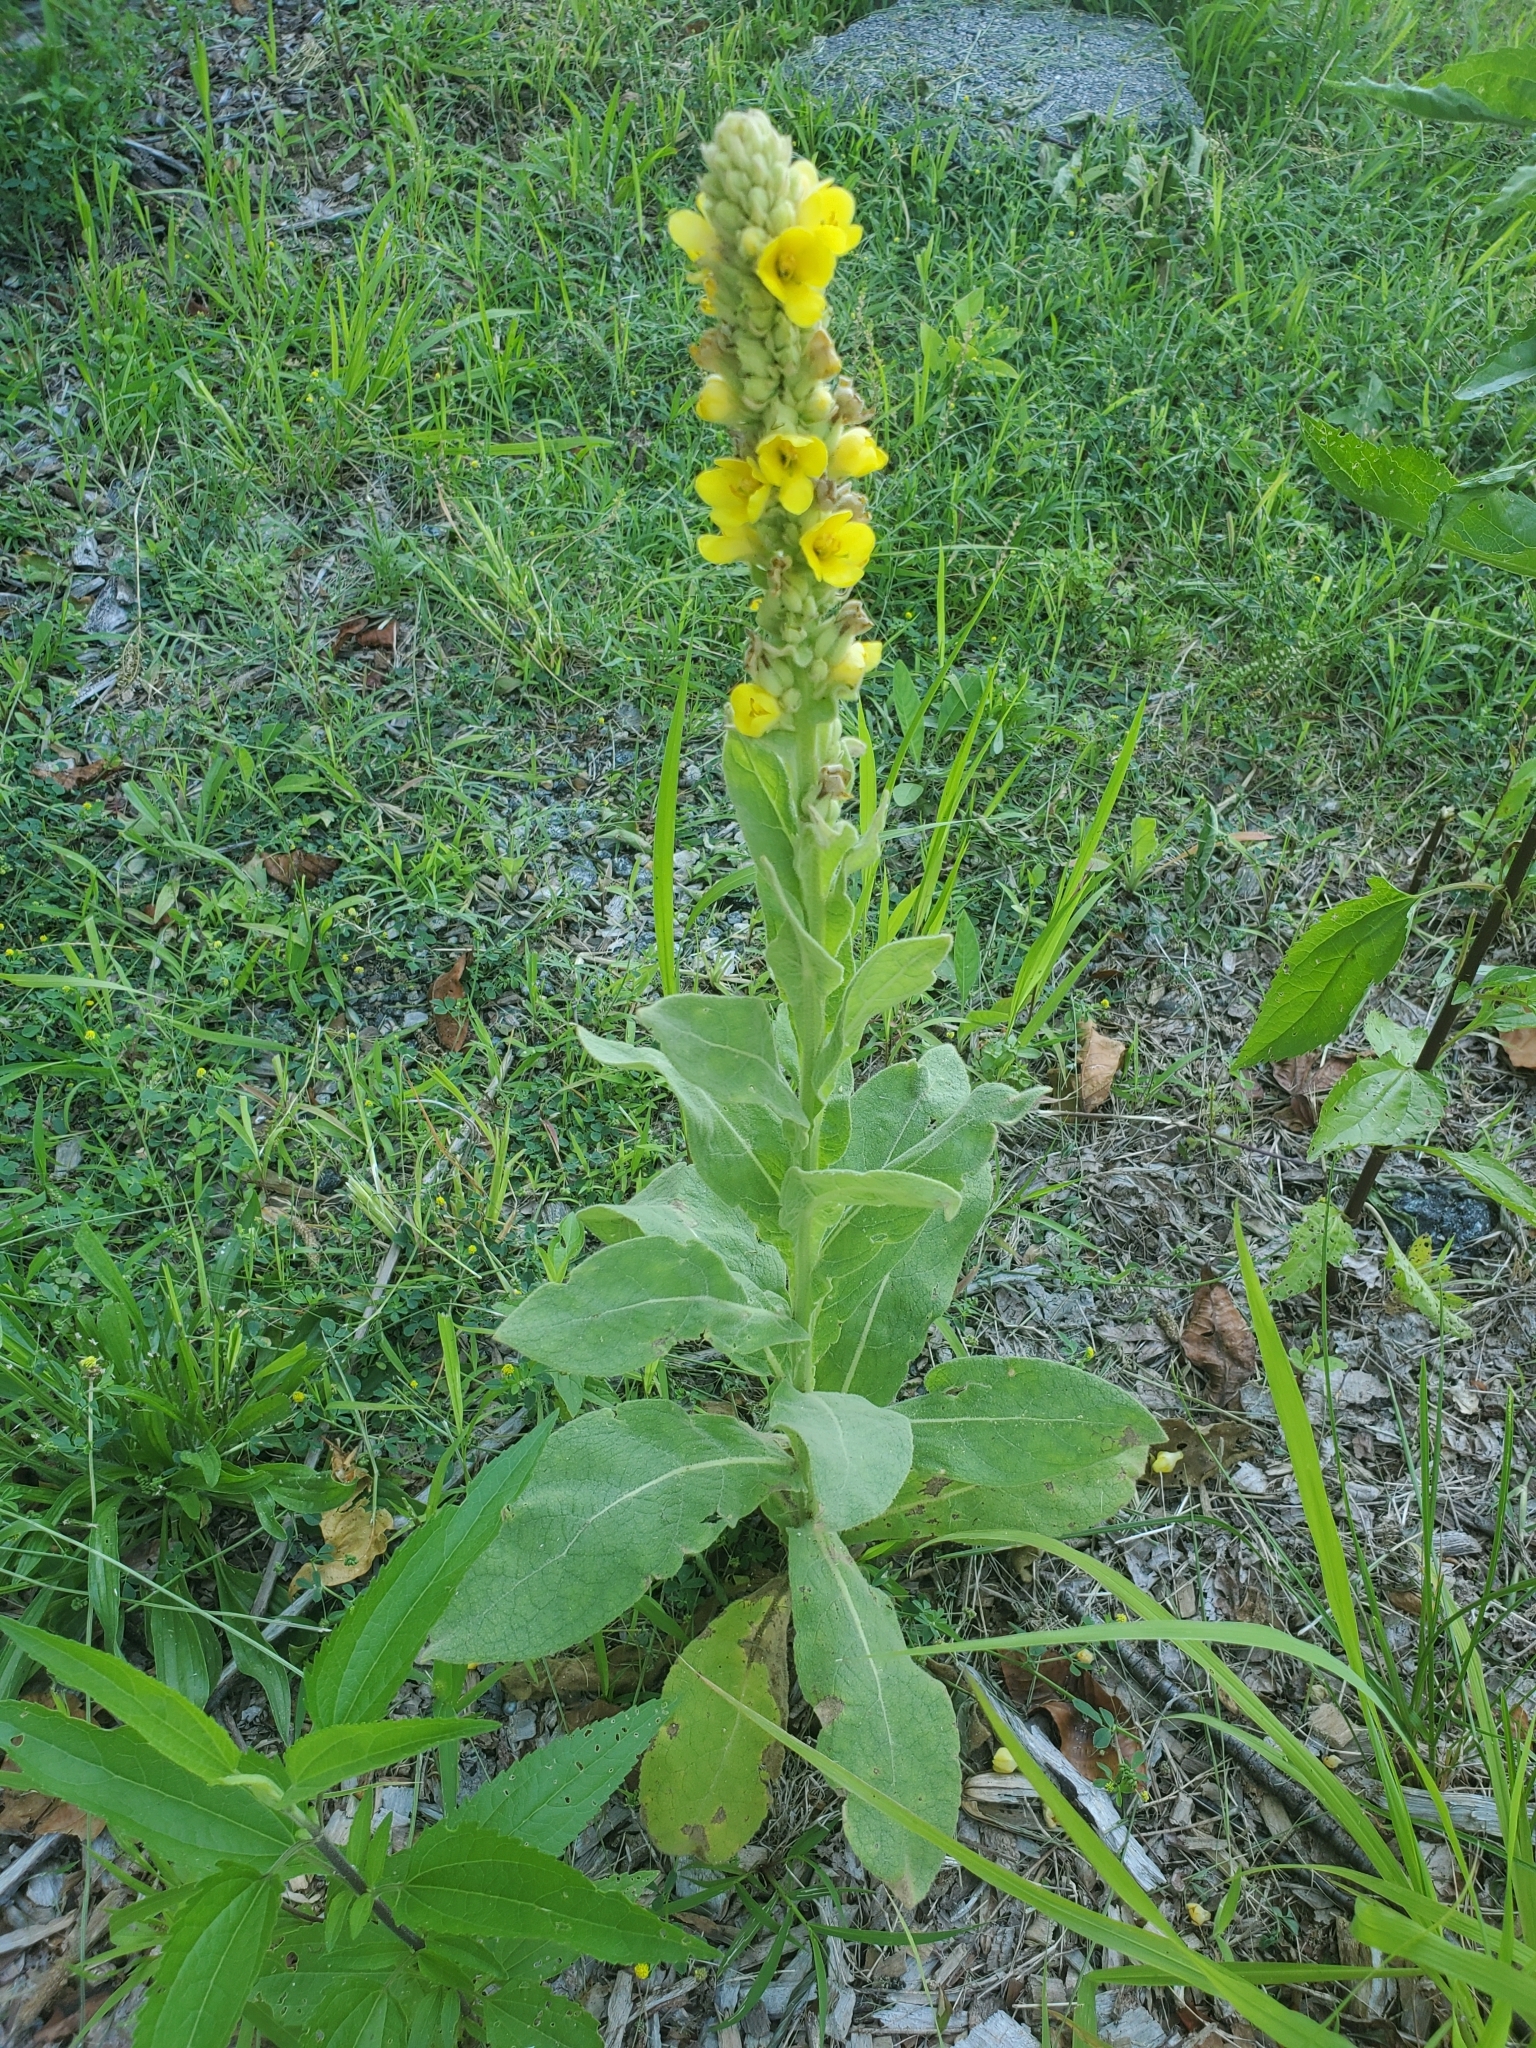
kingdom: Plantae
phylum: Tracheophyta
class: Magnoliopsida
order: Lamiales
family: Scrophulariaceae
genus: Verbascum
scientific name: Verbascum thapsus
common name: Common mullein
